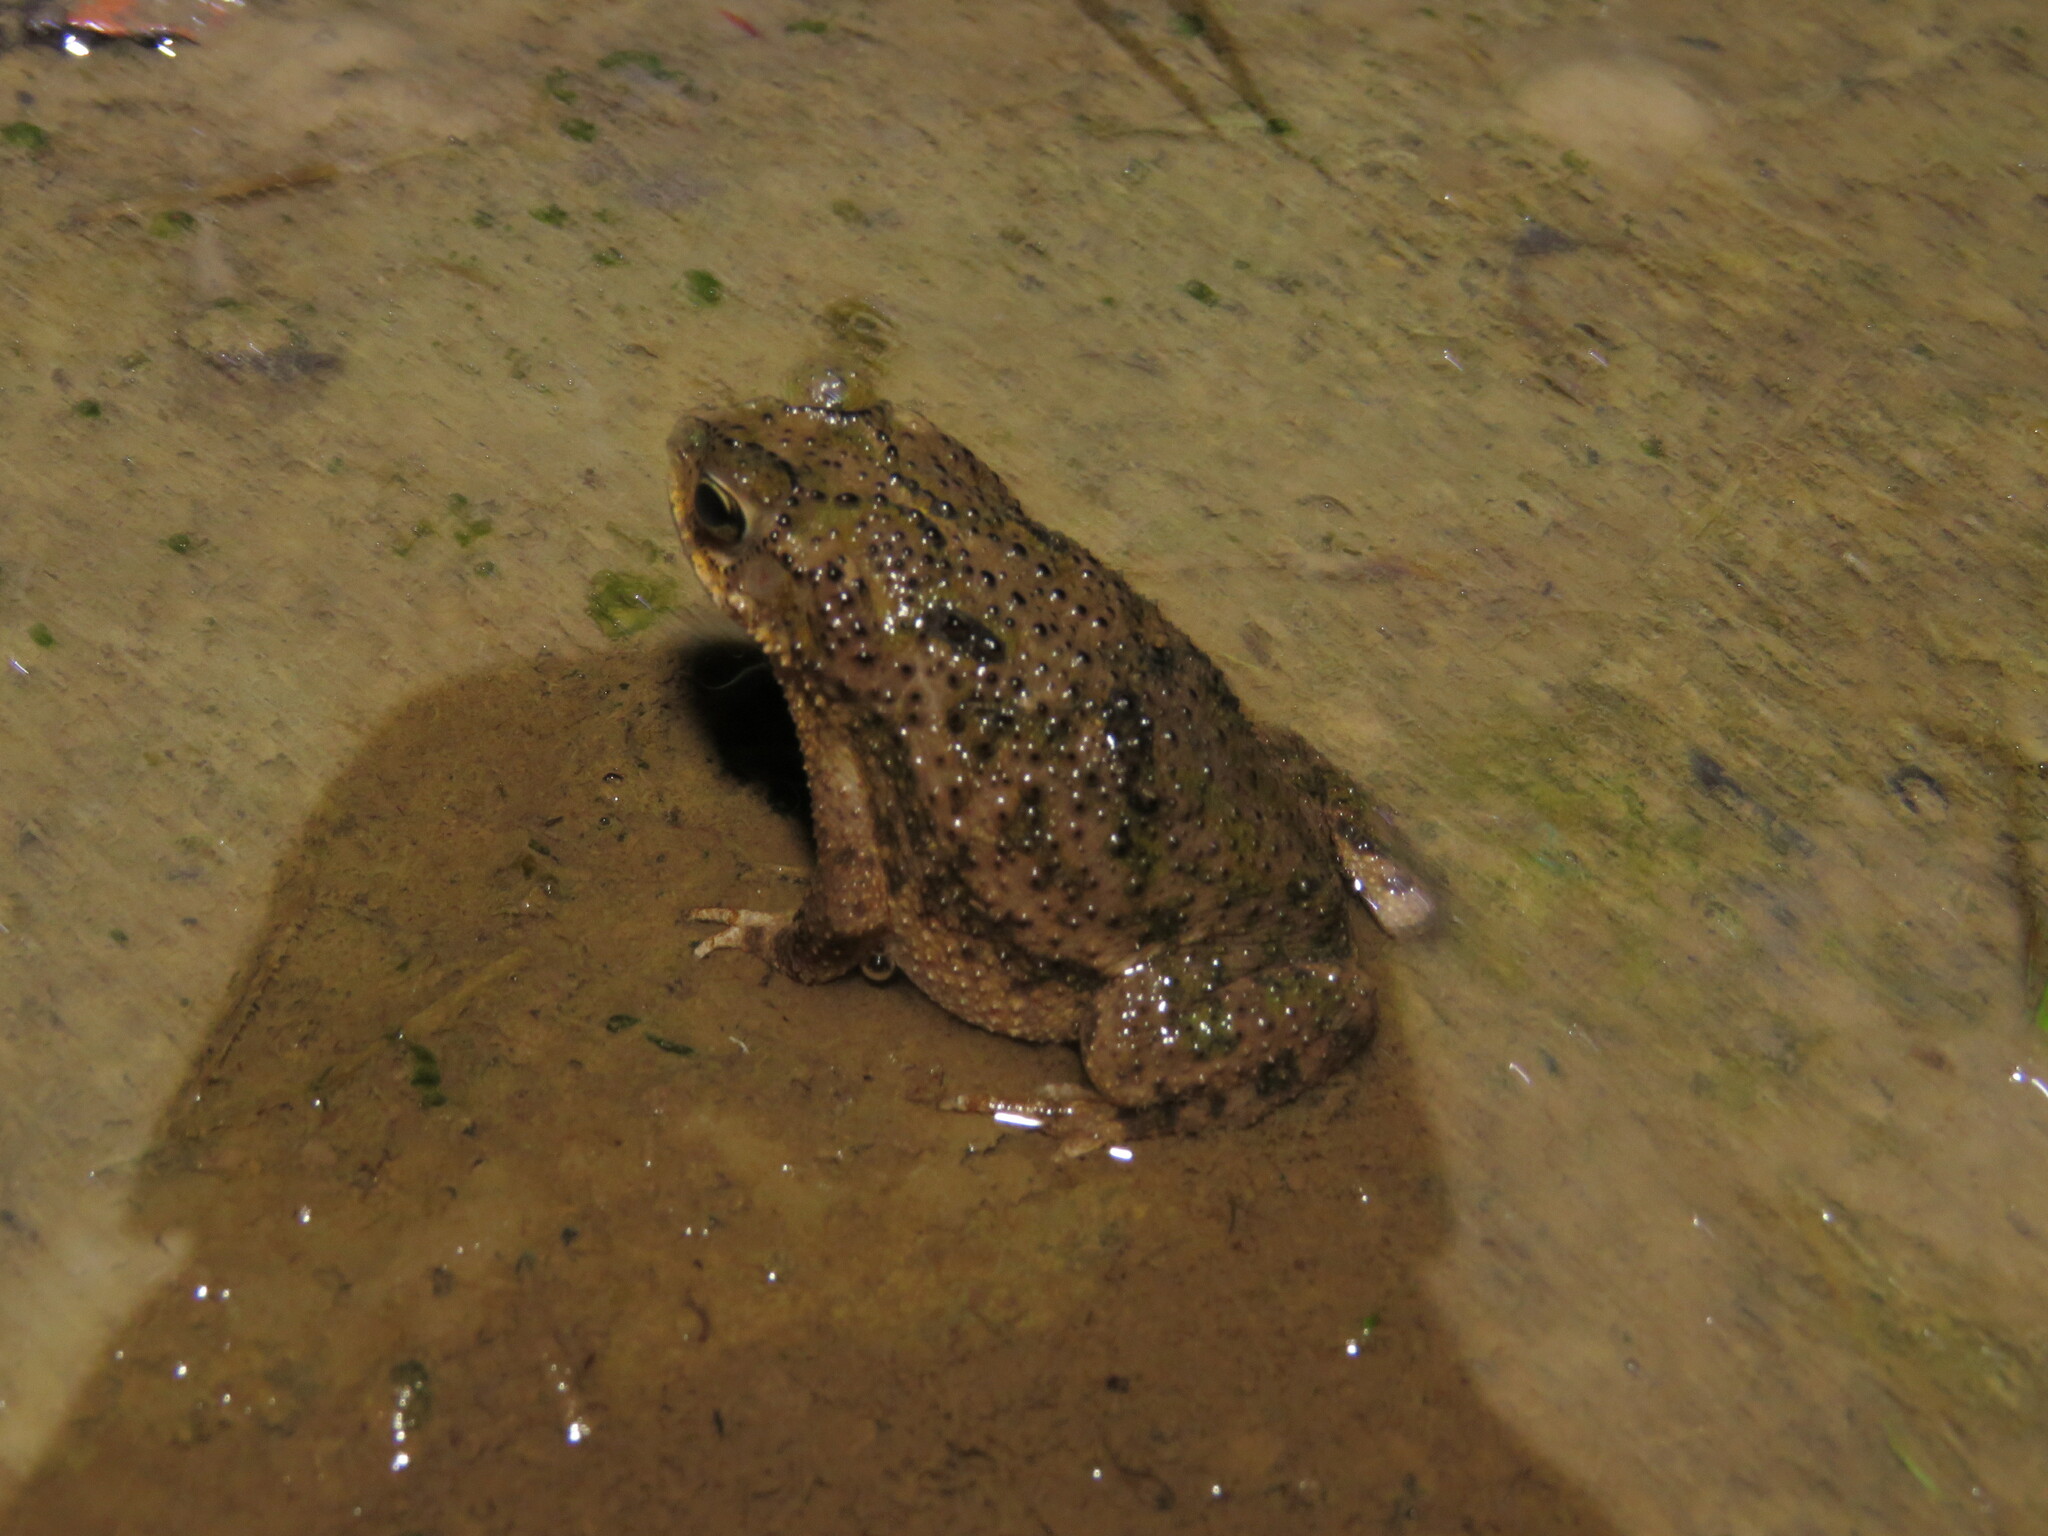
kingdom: Animalia
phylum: Chordata
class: Amphibia
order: Anura
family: Bufonidae
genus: Rhinella
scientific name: Rhinella major
